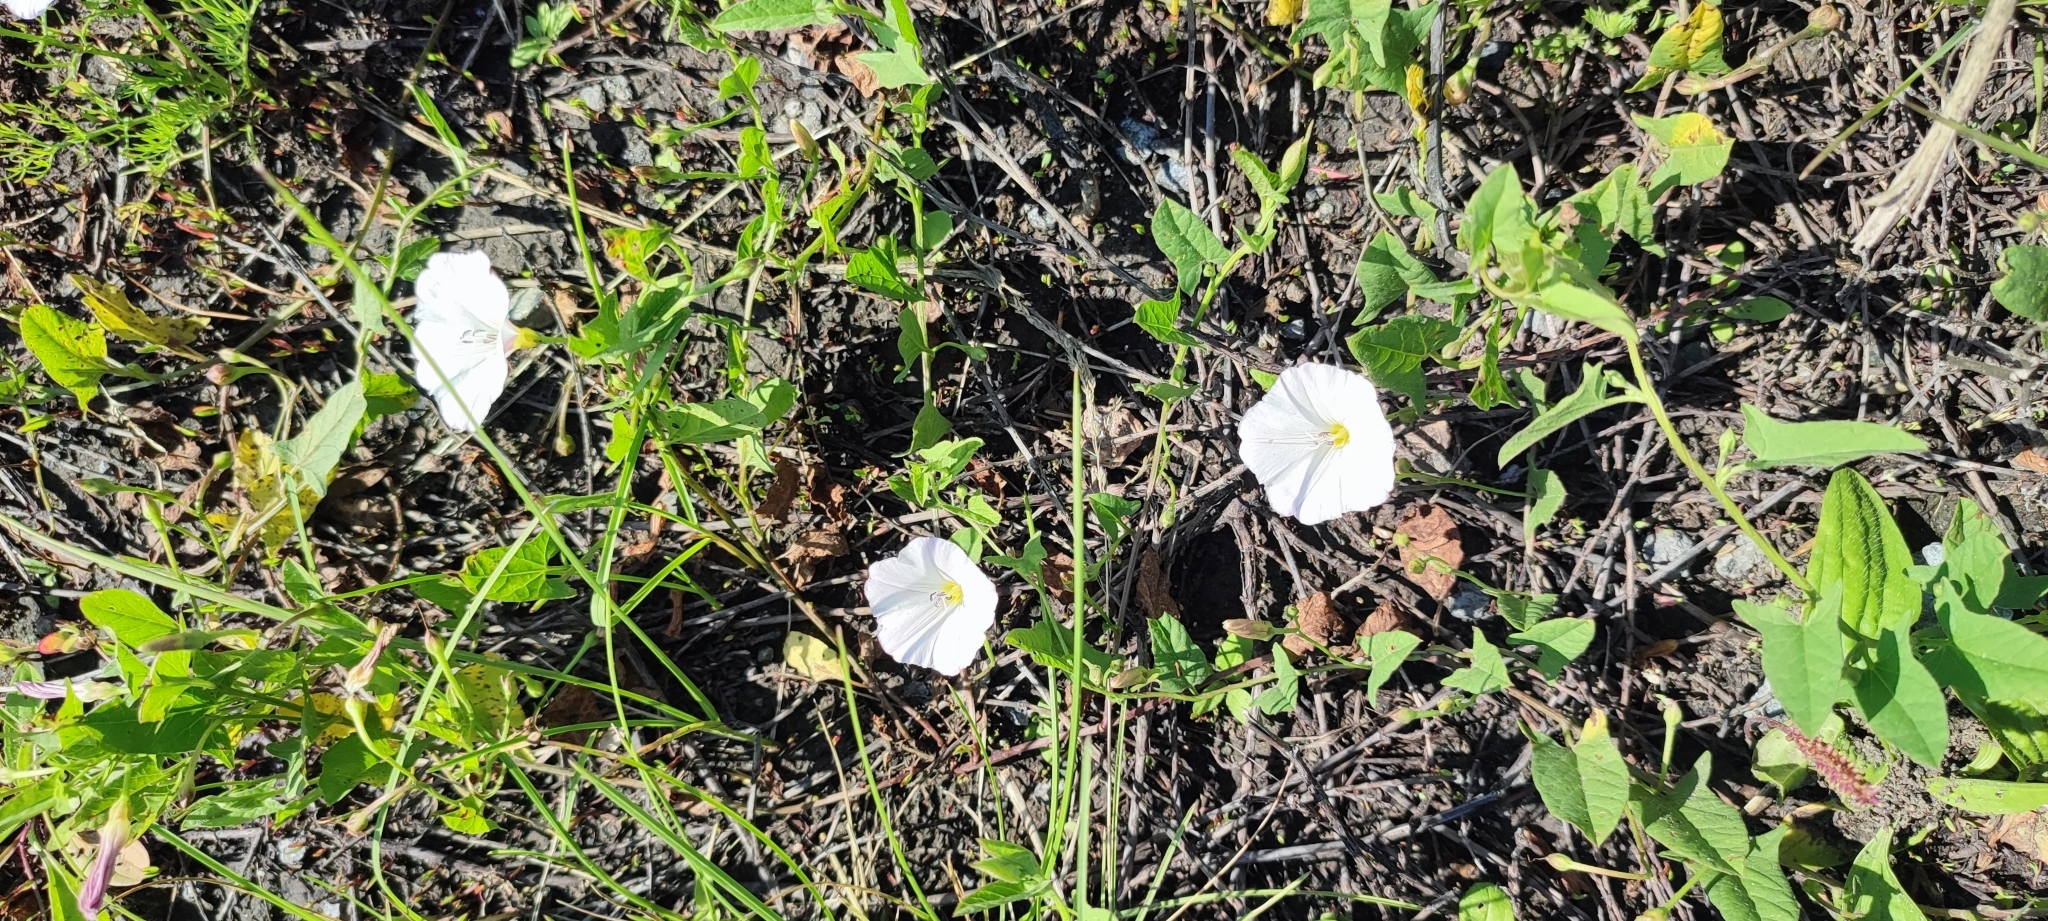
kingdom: Plantae
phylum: Tracheophyta
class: Magnoliopsida
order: Solanales
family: Convolvulaceae
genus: Convolvulus
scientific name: Convolvulus arvensis
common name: Field bindweed
